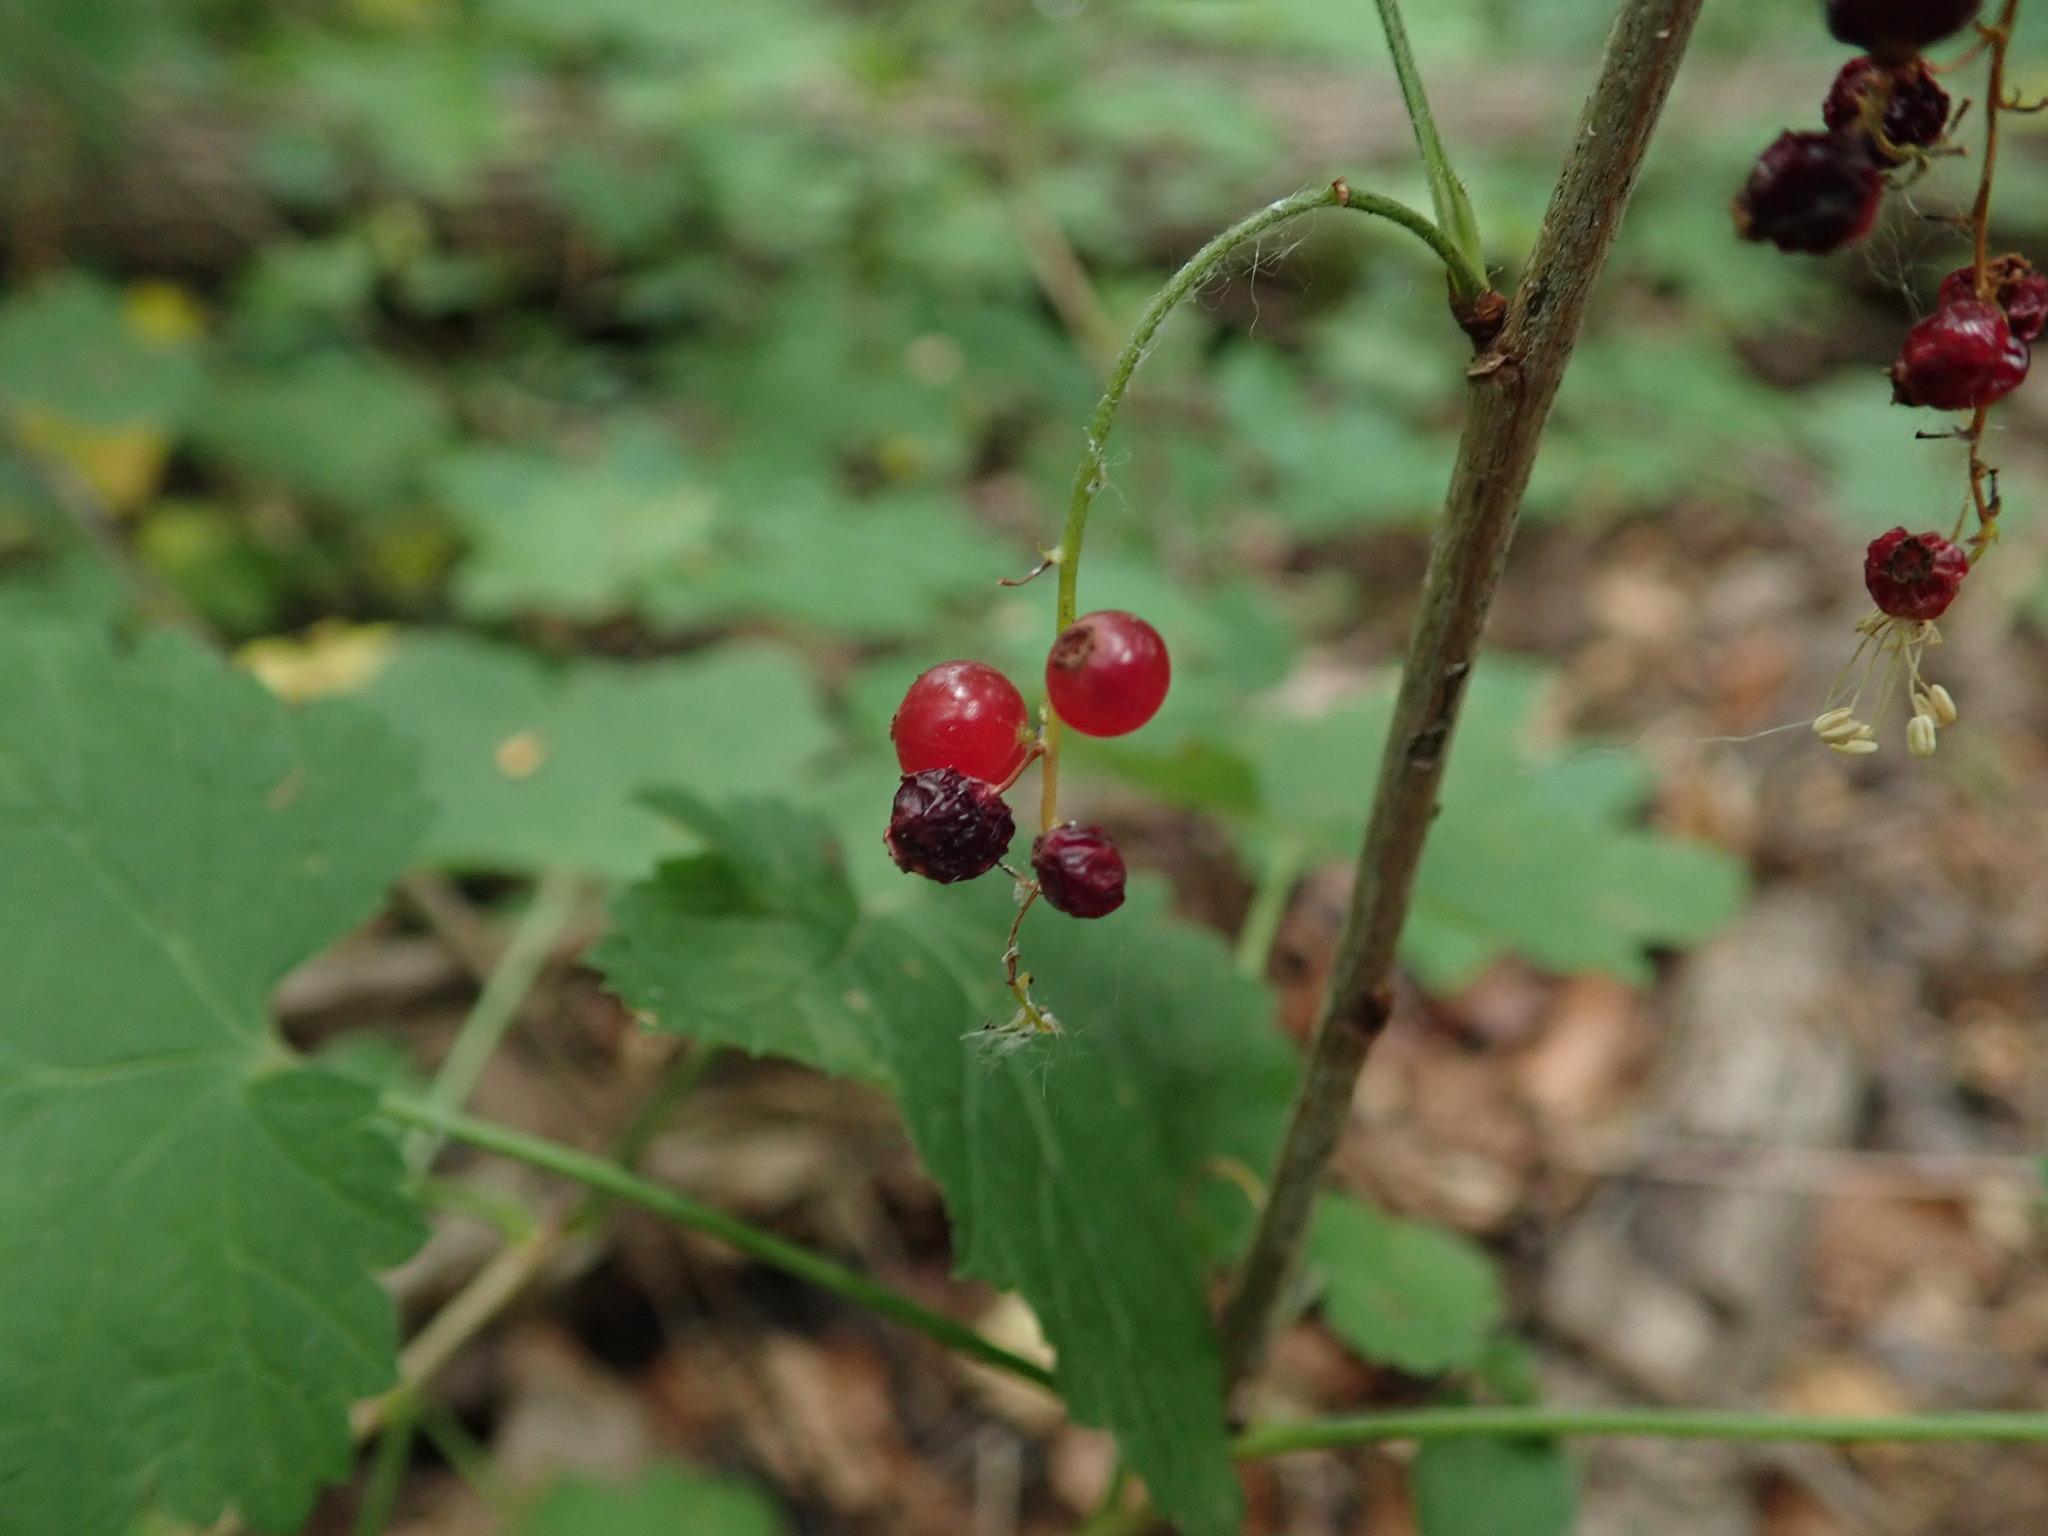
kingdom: Plantae
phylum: Tracheophyta
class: Magnoliopsida
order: Saxifragales
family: Grossulariaceae
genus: Ribes
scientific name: Ribes rubrum
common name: Red currant
